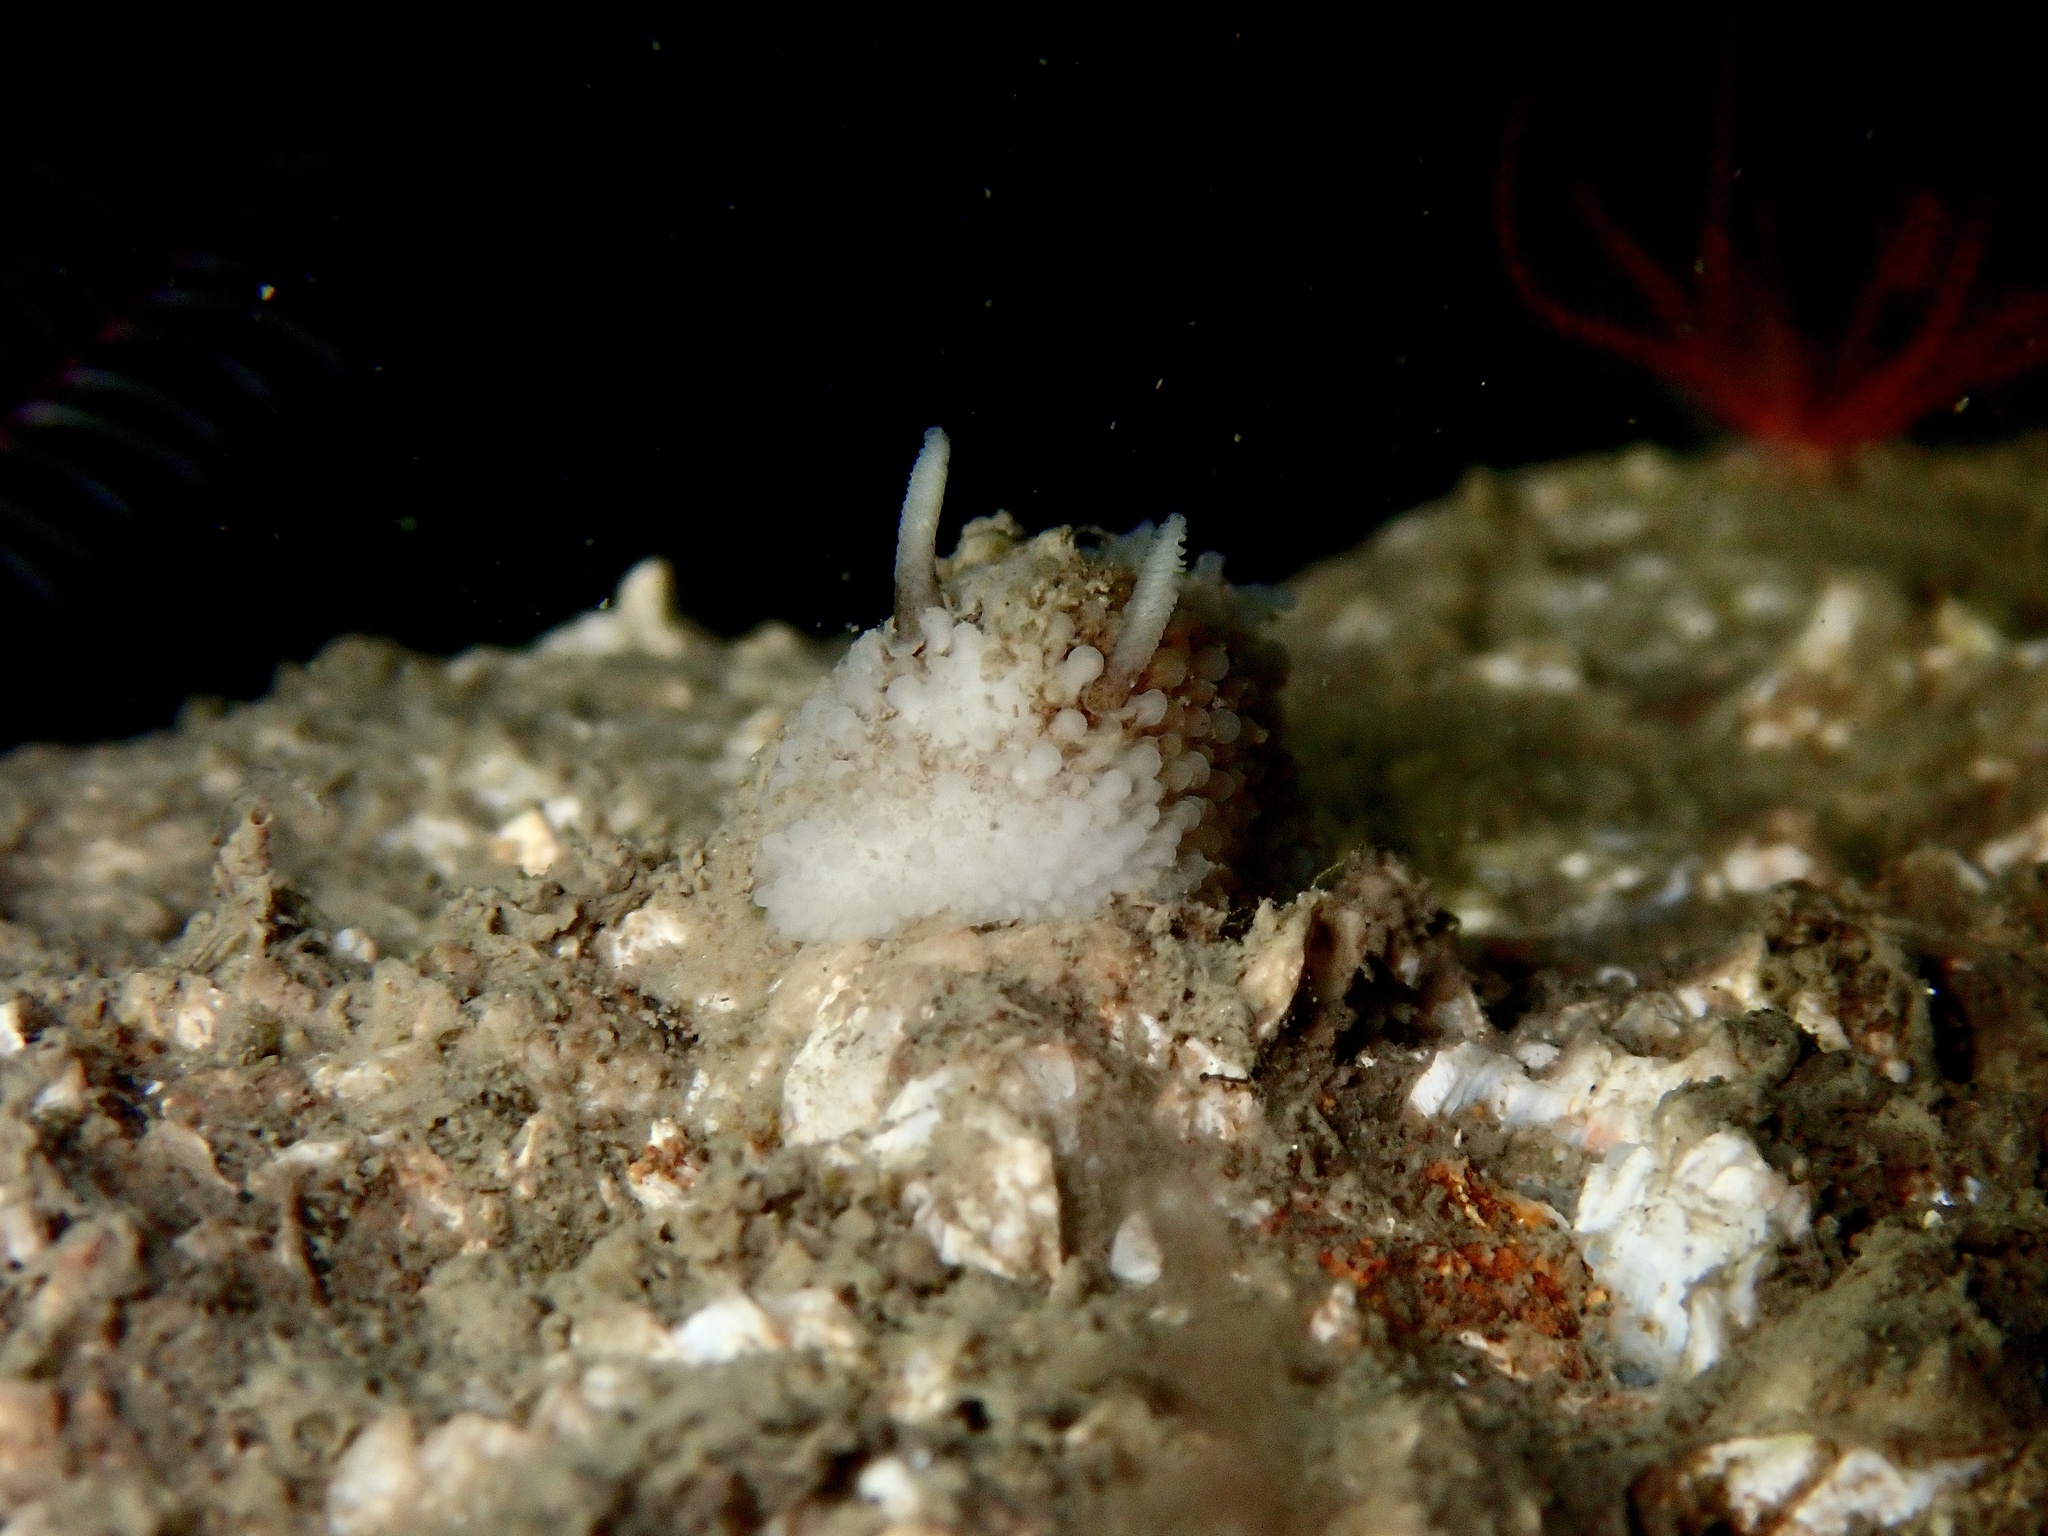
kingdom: Animalia
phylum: Mollusca
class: Gastropoda
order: Nudibranchia
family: Onchidorididae
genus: Onchidoris
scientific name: Onchidoris bilamellata
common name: Barnacle-eating onchidoris
